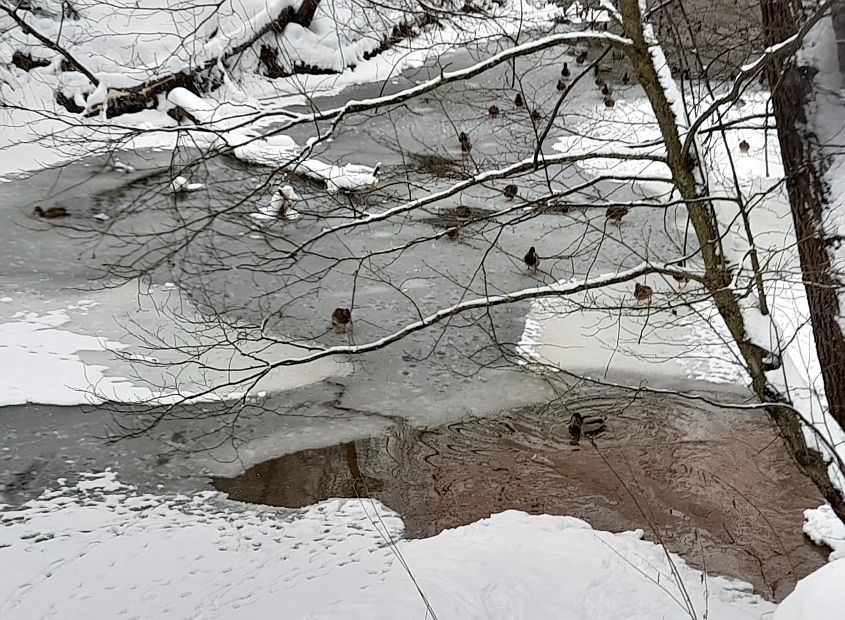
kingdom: Animalia
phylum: Chordata
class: Aves
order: Anseriformes
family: Anatidae
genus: Anas
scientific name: Anas platyrhynchos
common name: Mallard
